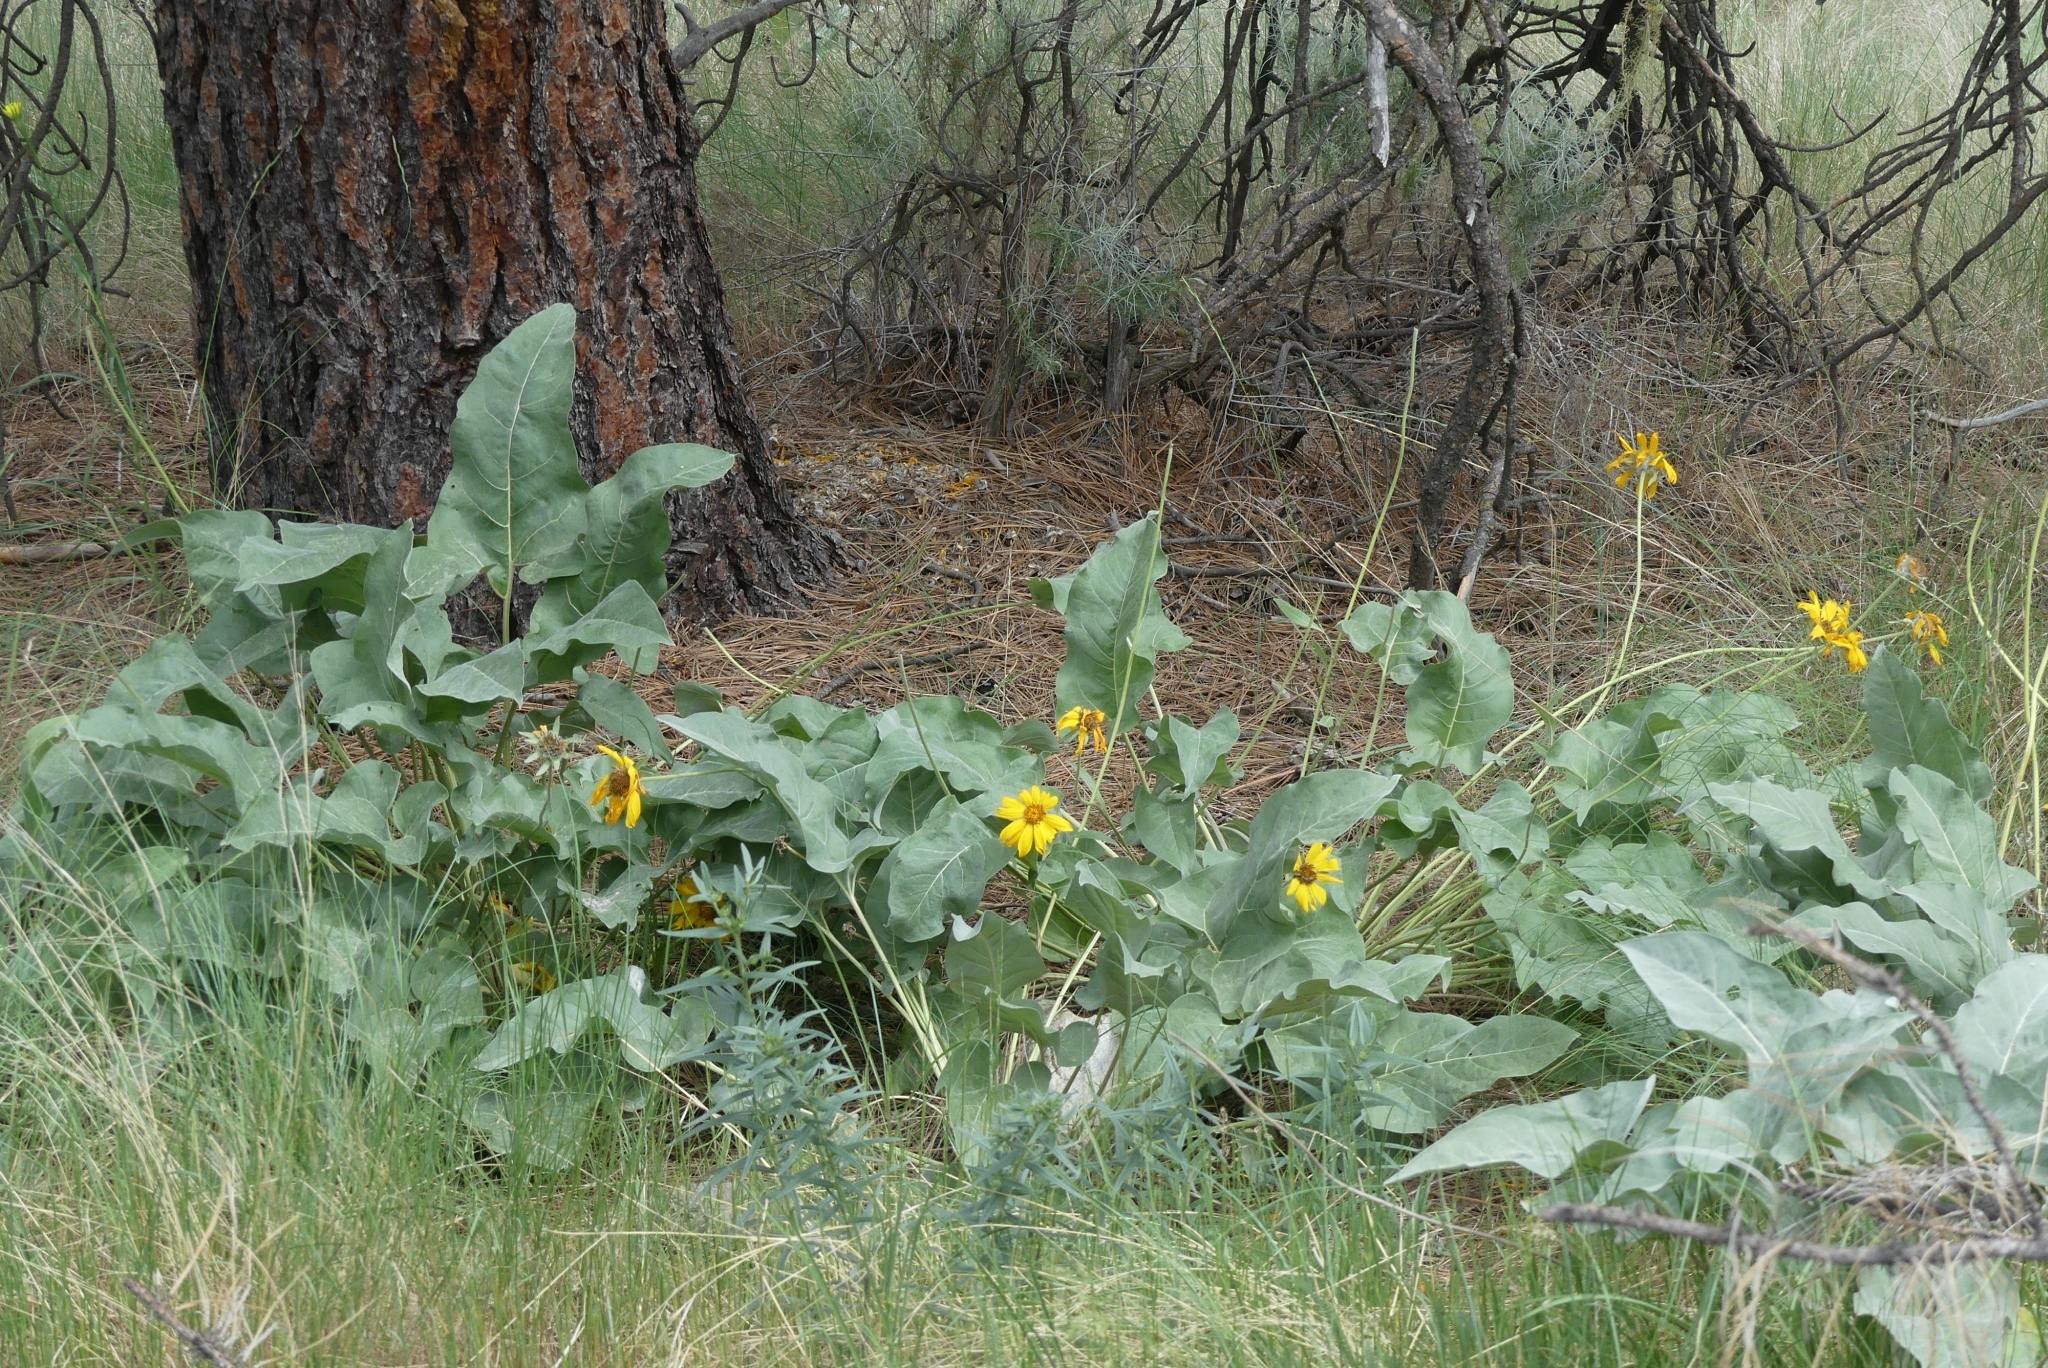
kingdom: Plantae
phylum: Tracheophyta
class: Magnoliopsida
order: Asterales
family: Asteraceae
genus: Wyethia
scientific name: Wyethia sagittata
